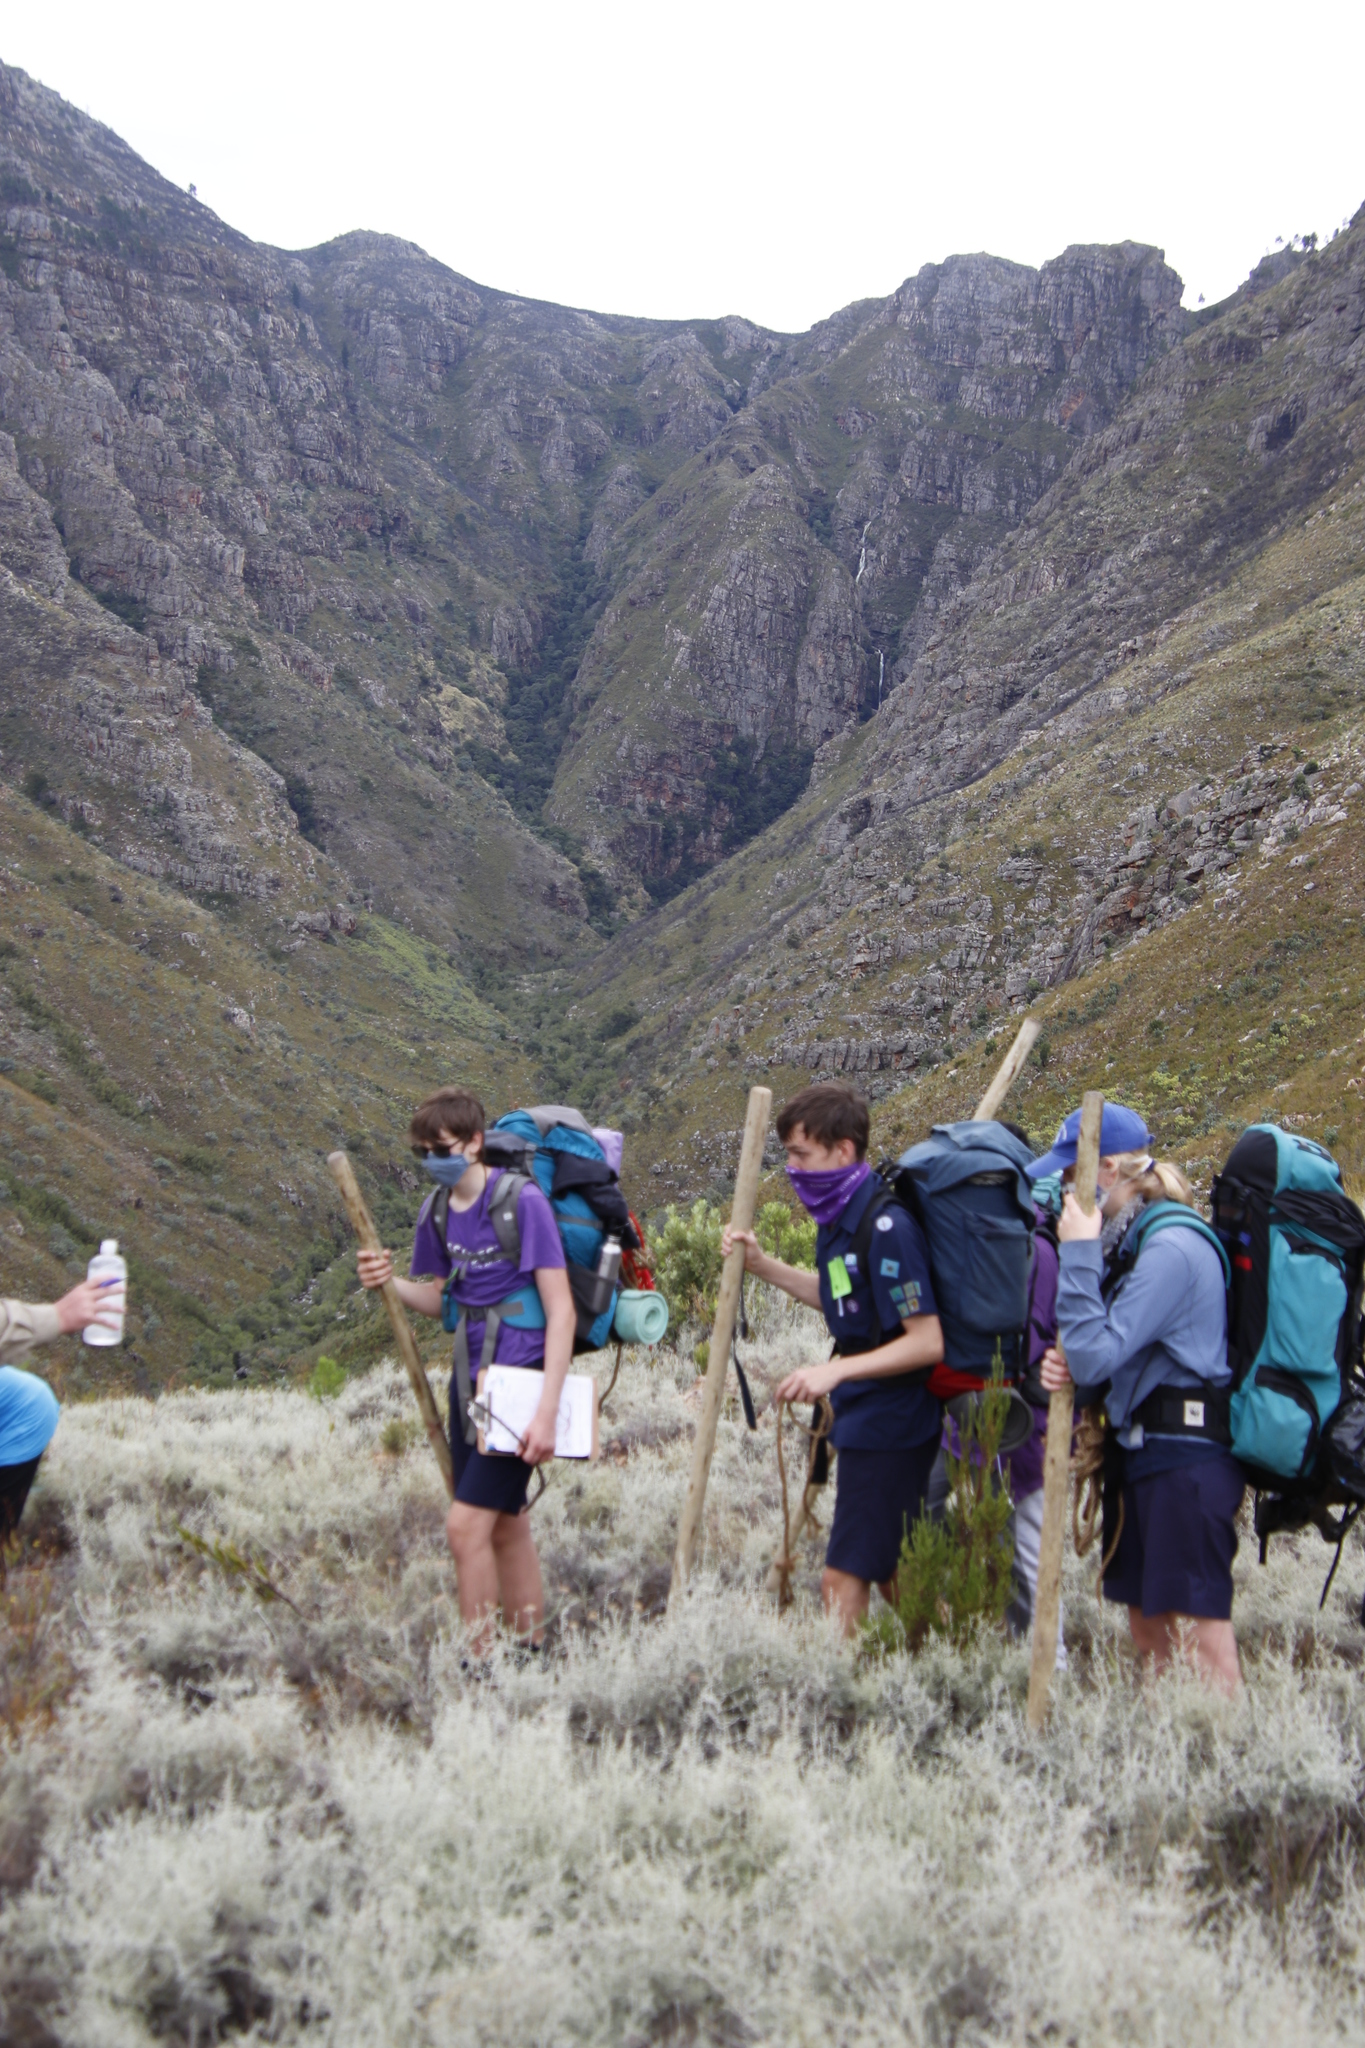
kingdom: Plantae
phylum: Tracheophyta
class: Magnoliopsida
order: Asterales
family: Asteraceae
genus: Seriphium
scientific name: Seriphium plumosum
